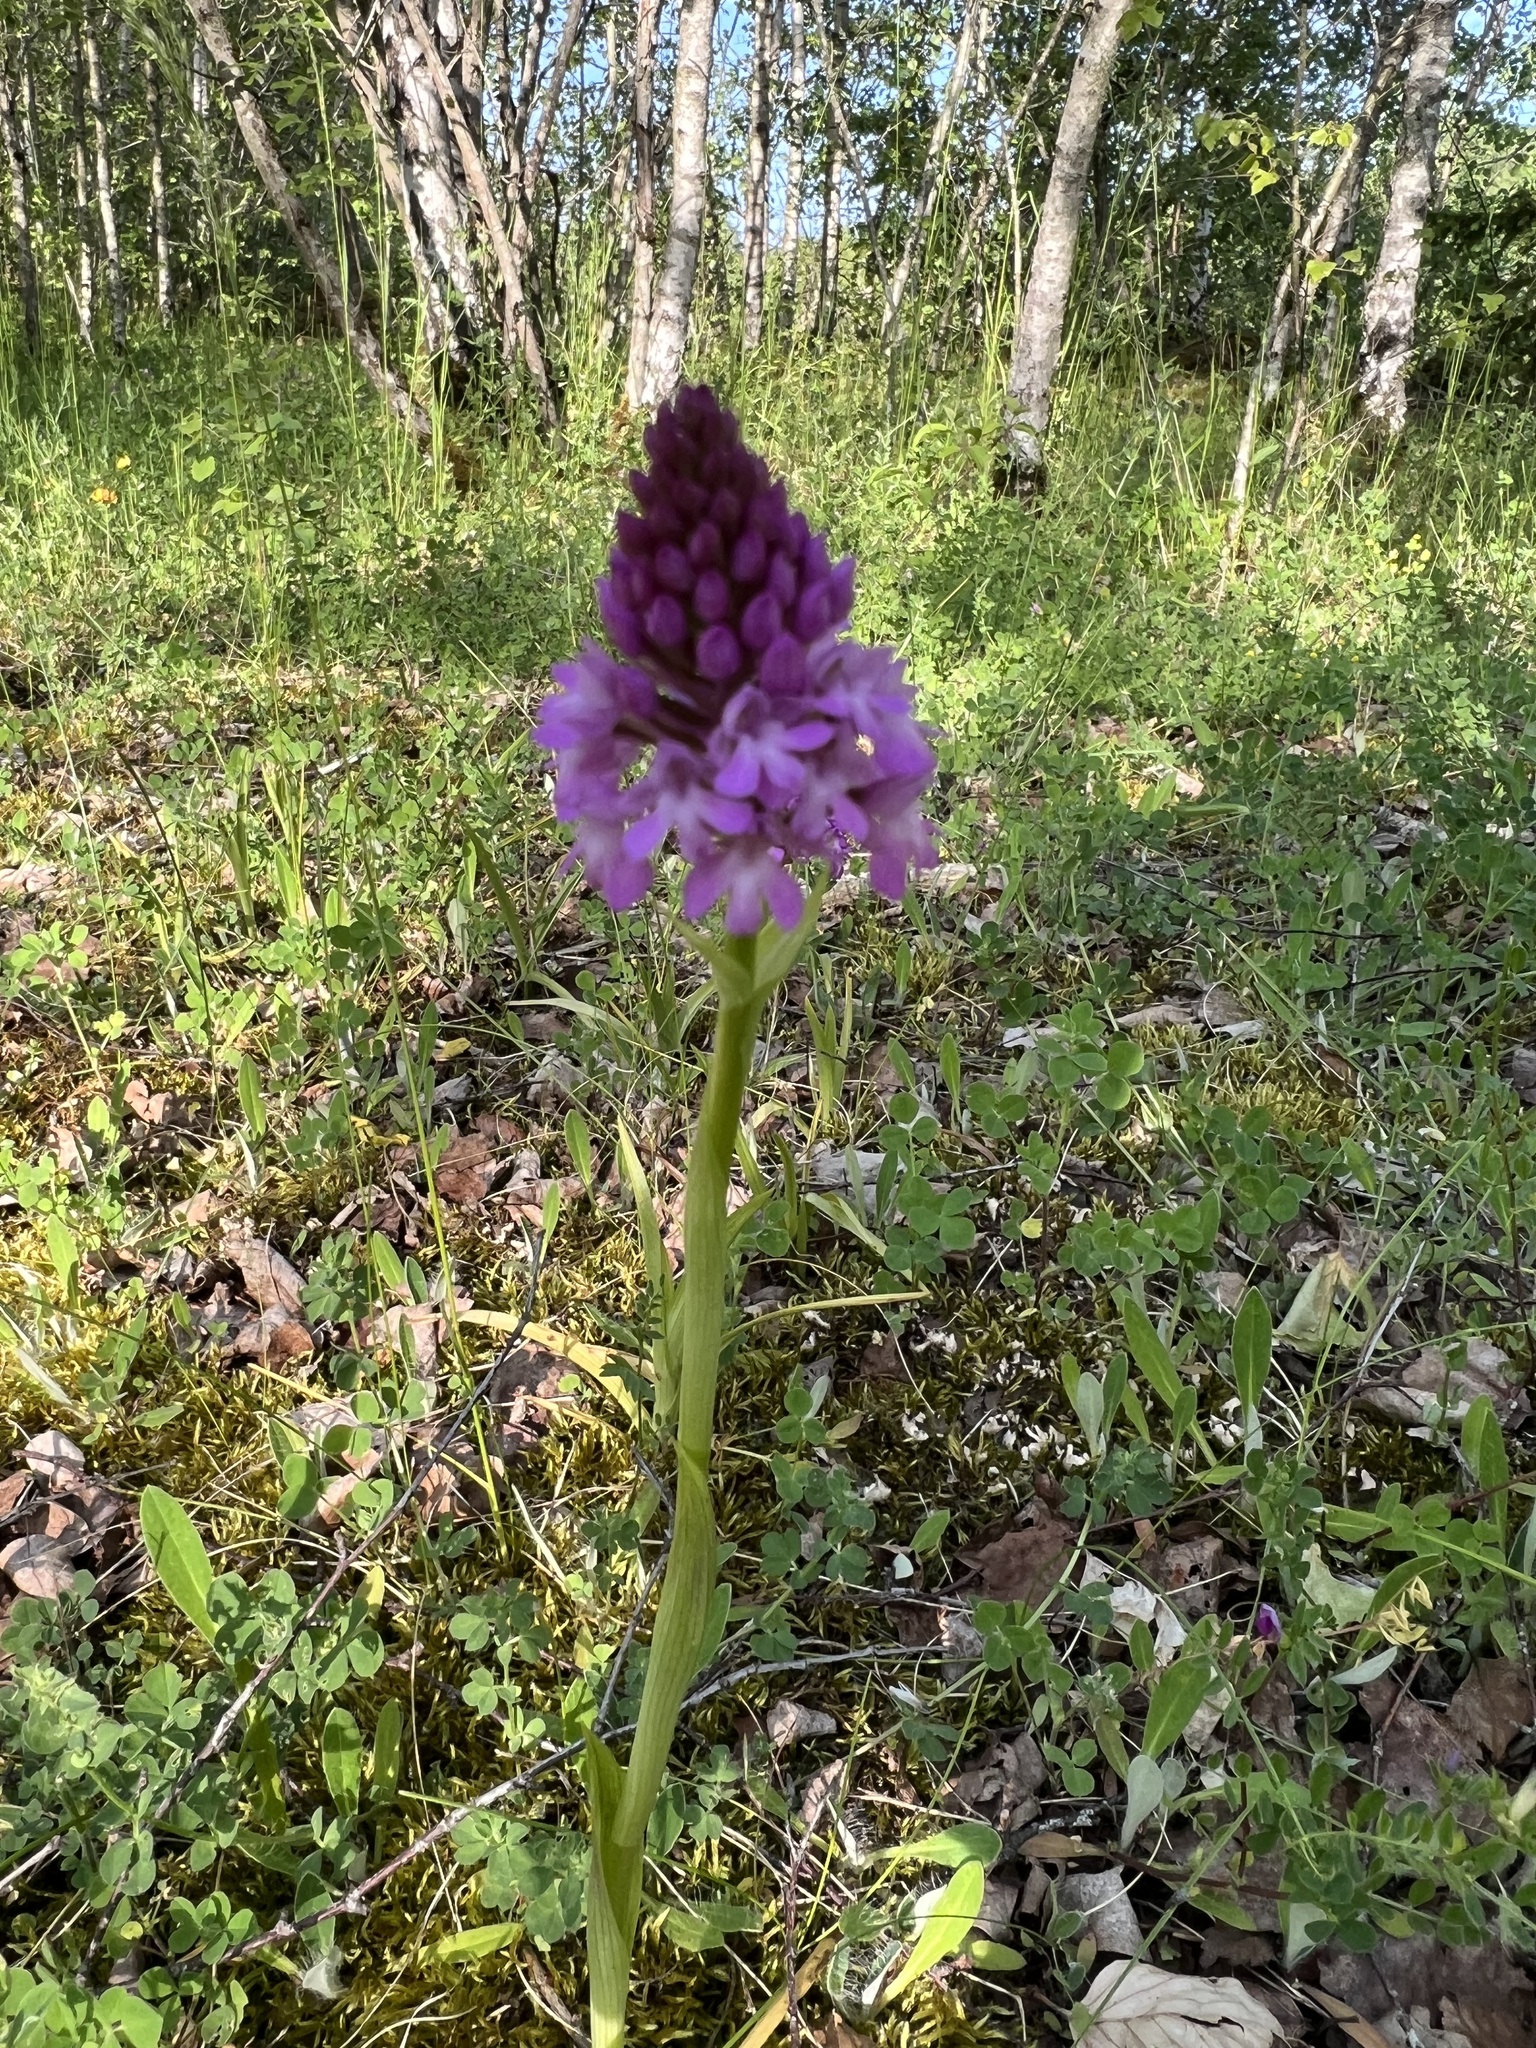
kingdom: Plantae
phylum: Tracheophyta
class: Liliopsida
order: Asparagales
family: Orchidaceae
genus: Anacamptis
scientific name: Anacamptis pyramidalis
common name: Pyramidal orchid
